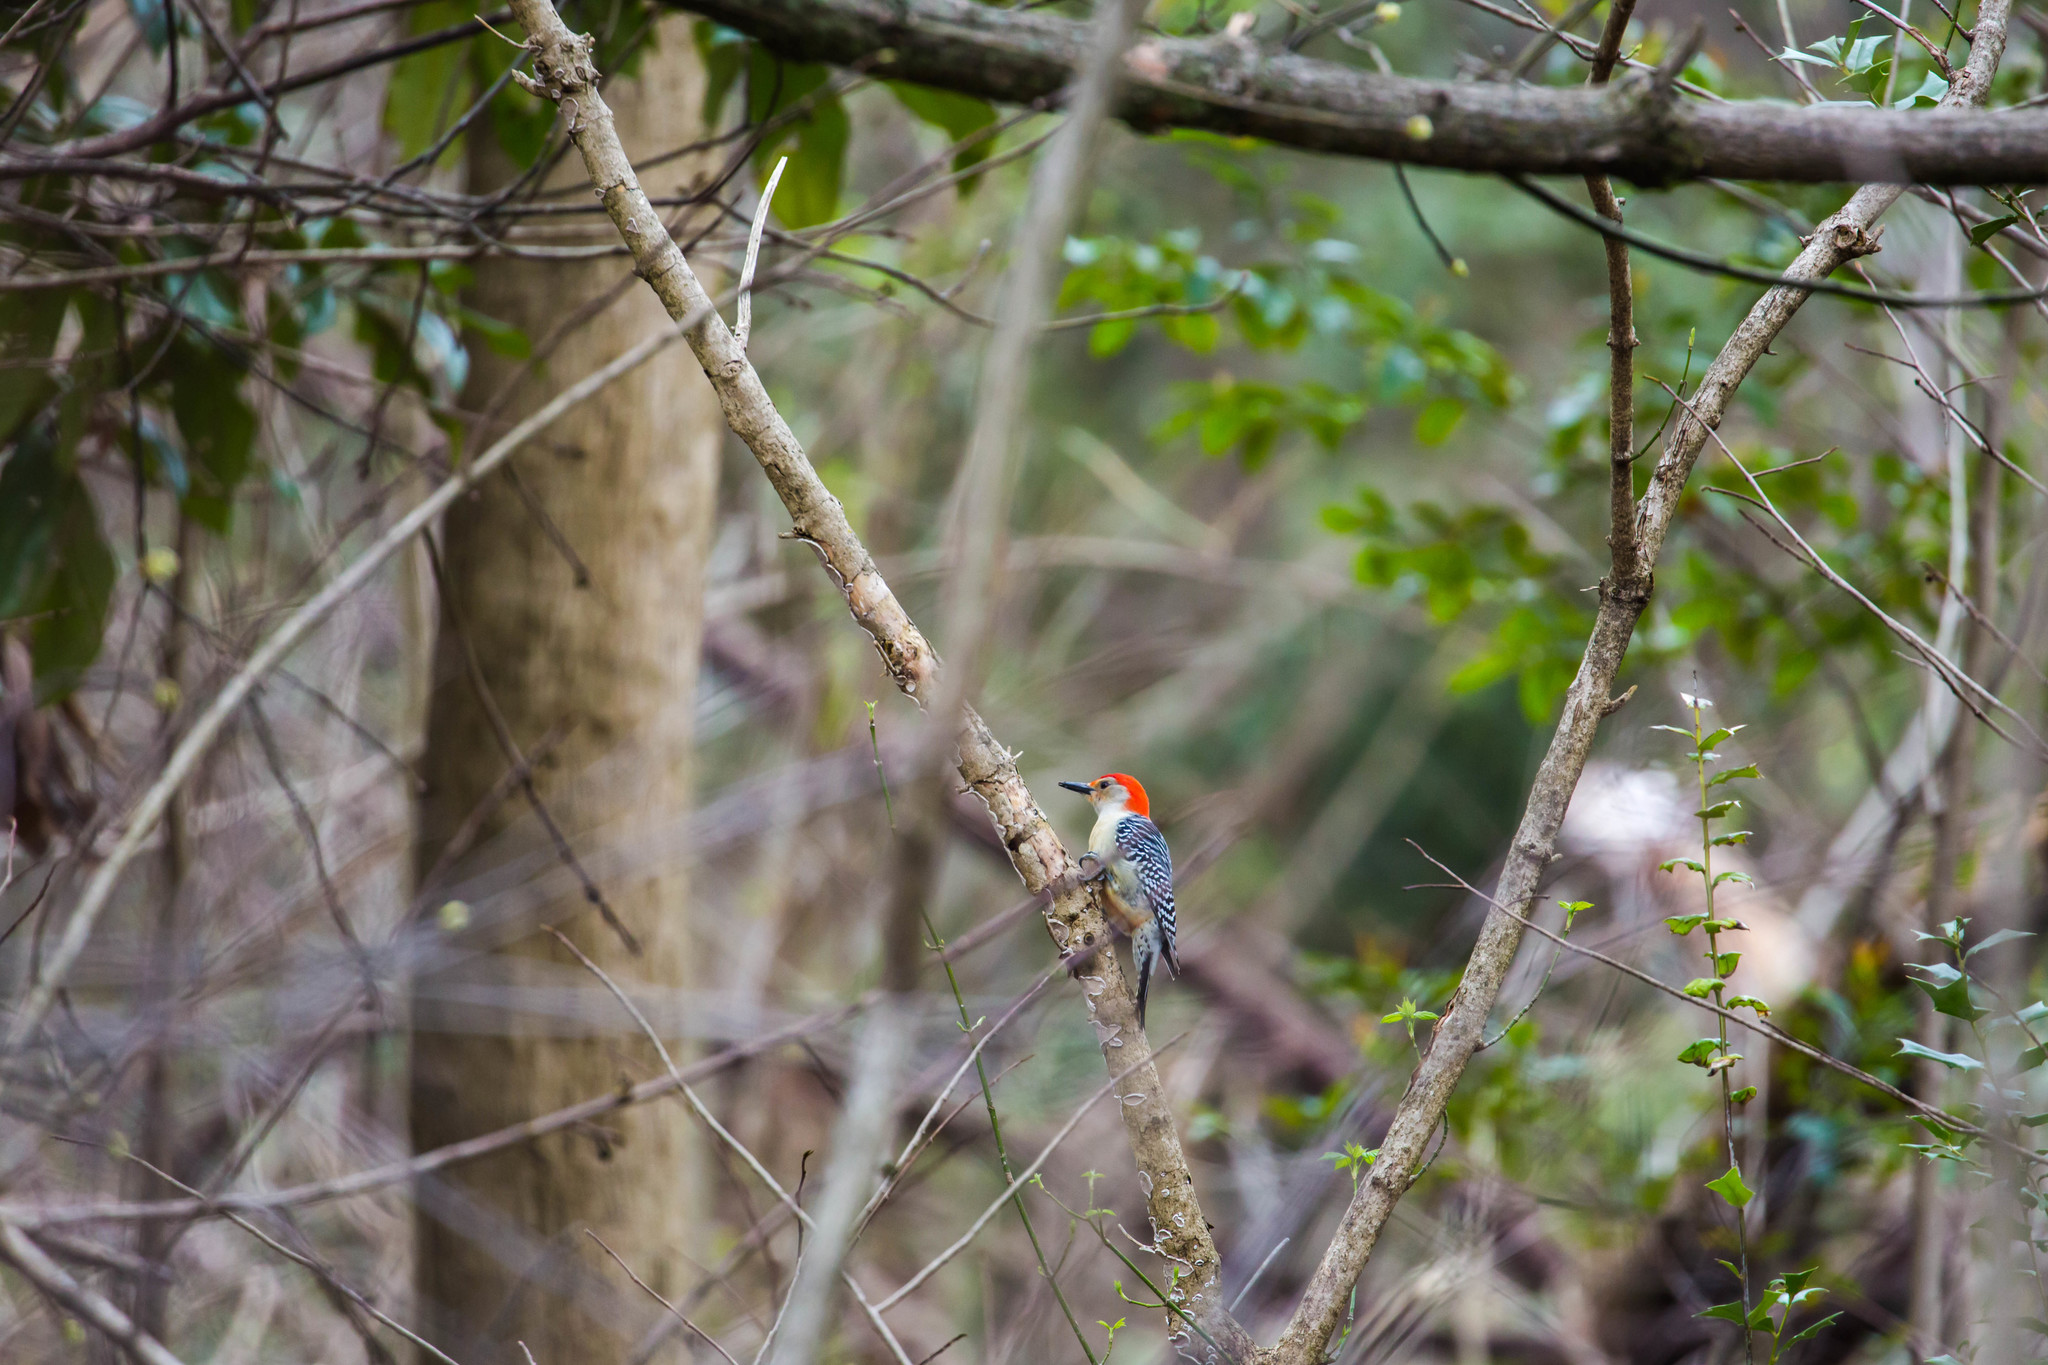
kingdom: Animalia
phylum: Chordata
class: Aves
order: Piciformes
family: Picidae
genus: Melanerpes
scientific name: Melanerpes carolinus
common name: Red-bellied woodpecker
